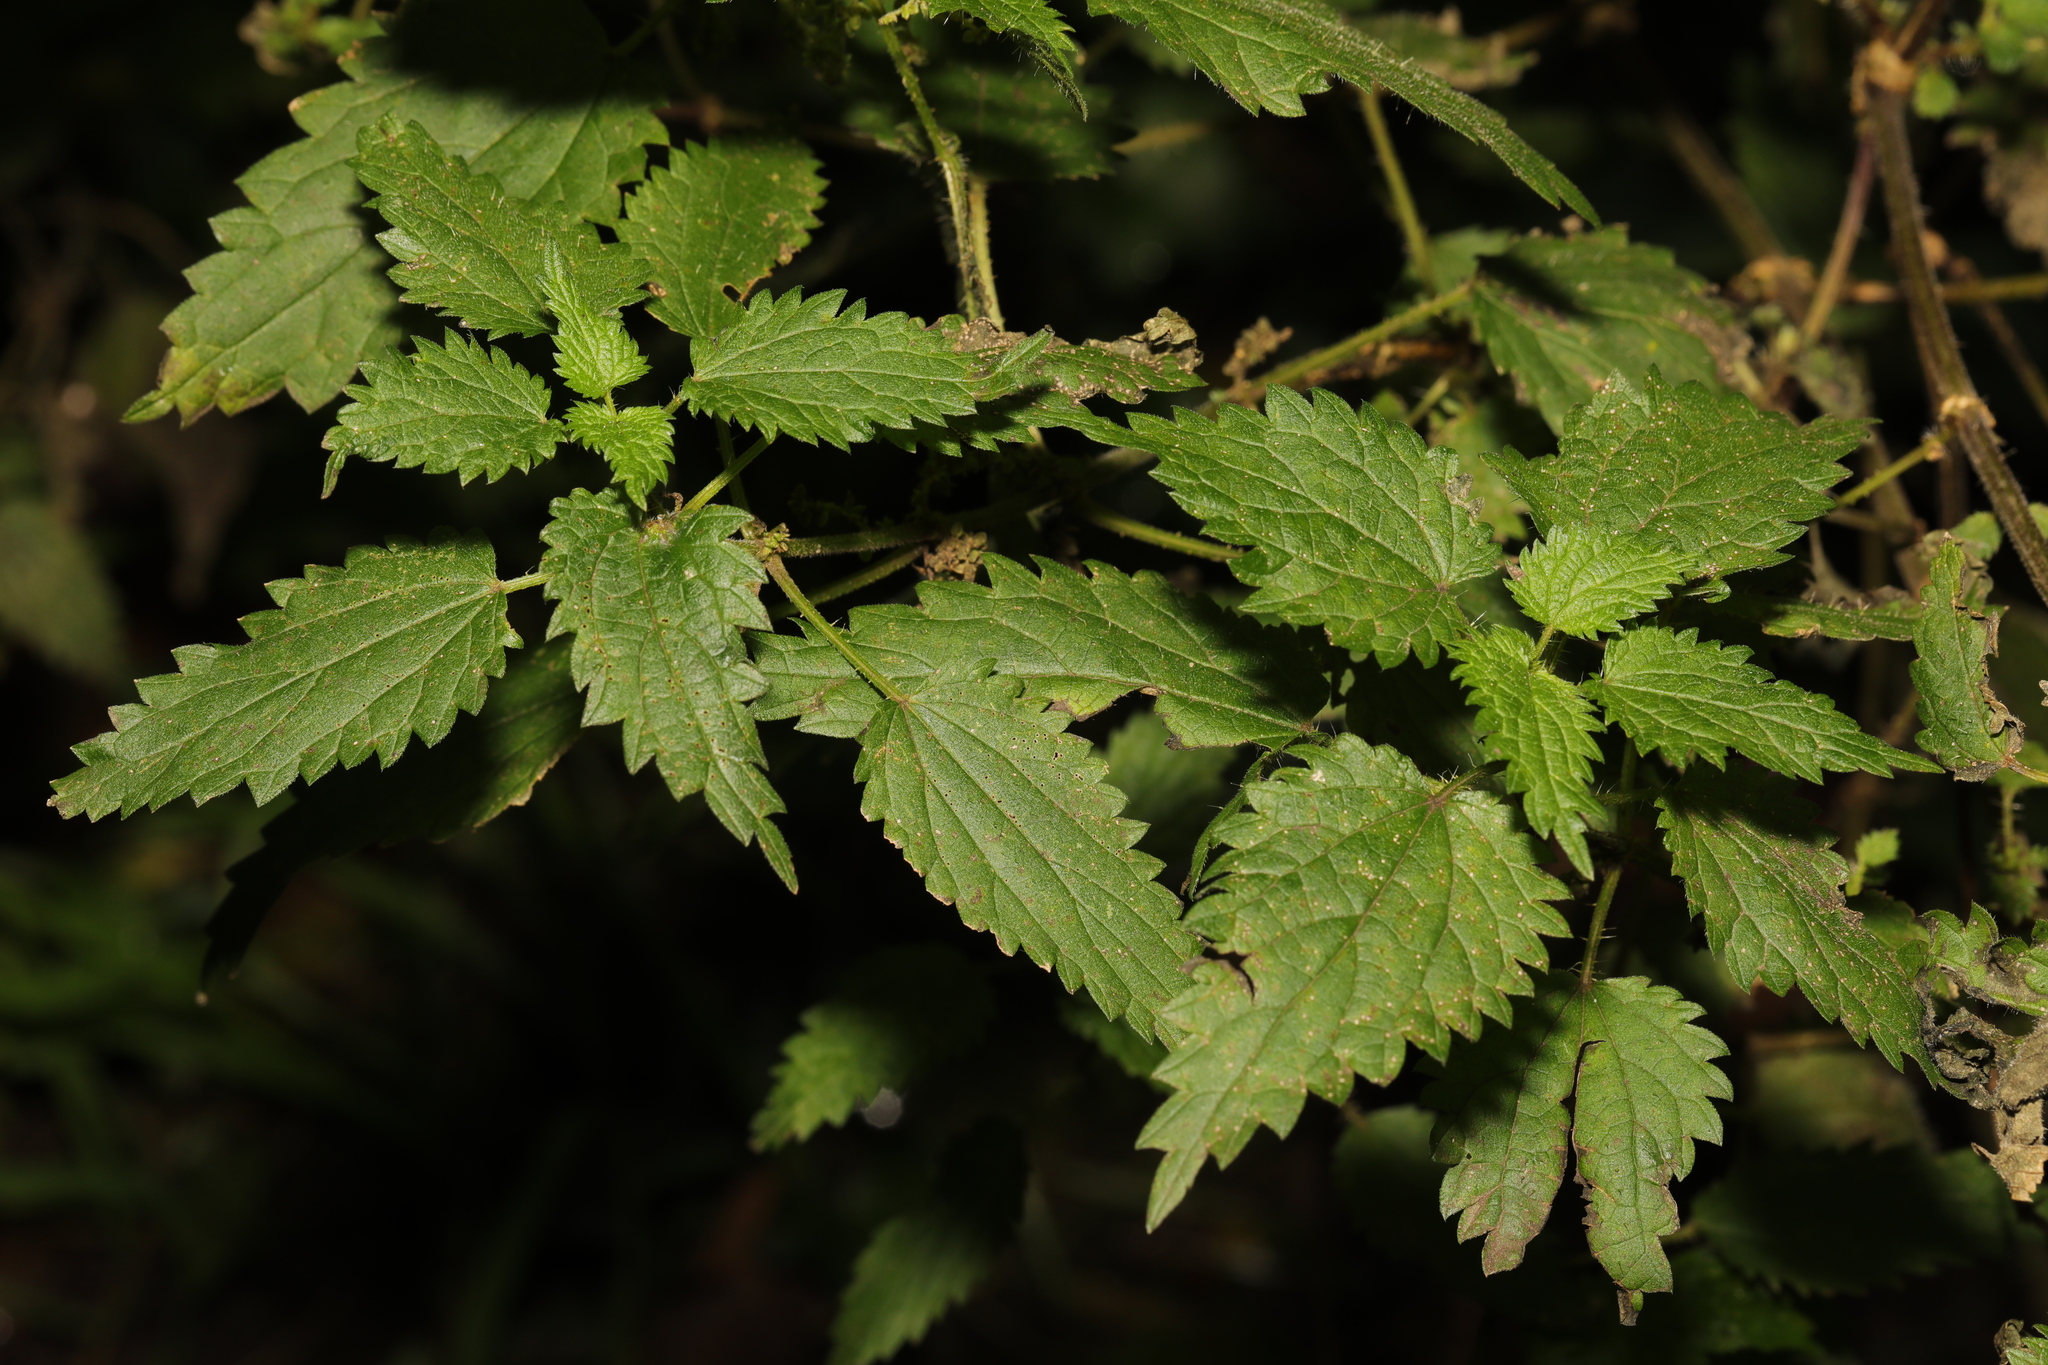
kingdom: Plantae
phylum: Tracheophyta
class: Magnoliopsida
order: Rosales
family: Urticaceae
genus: Urtica
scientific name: Urtica dioica
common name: Common nettle
